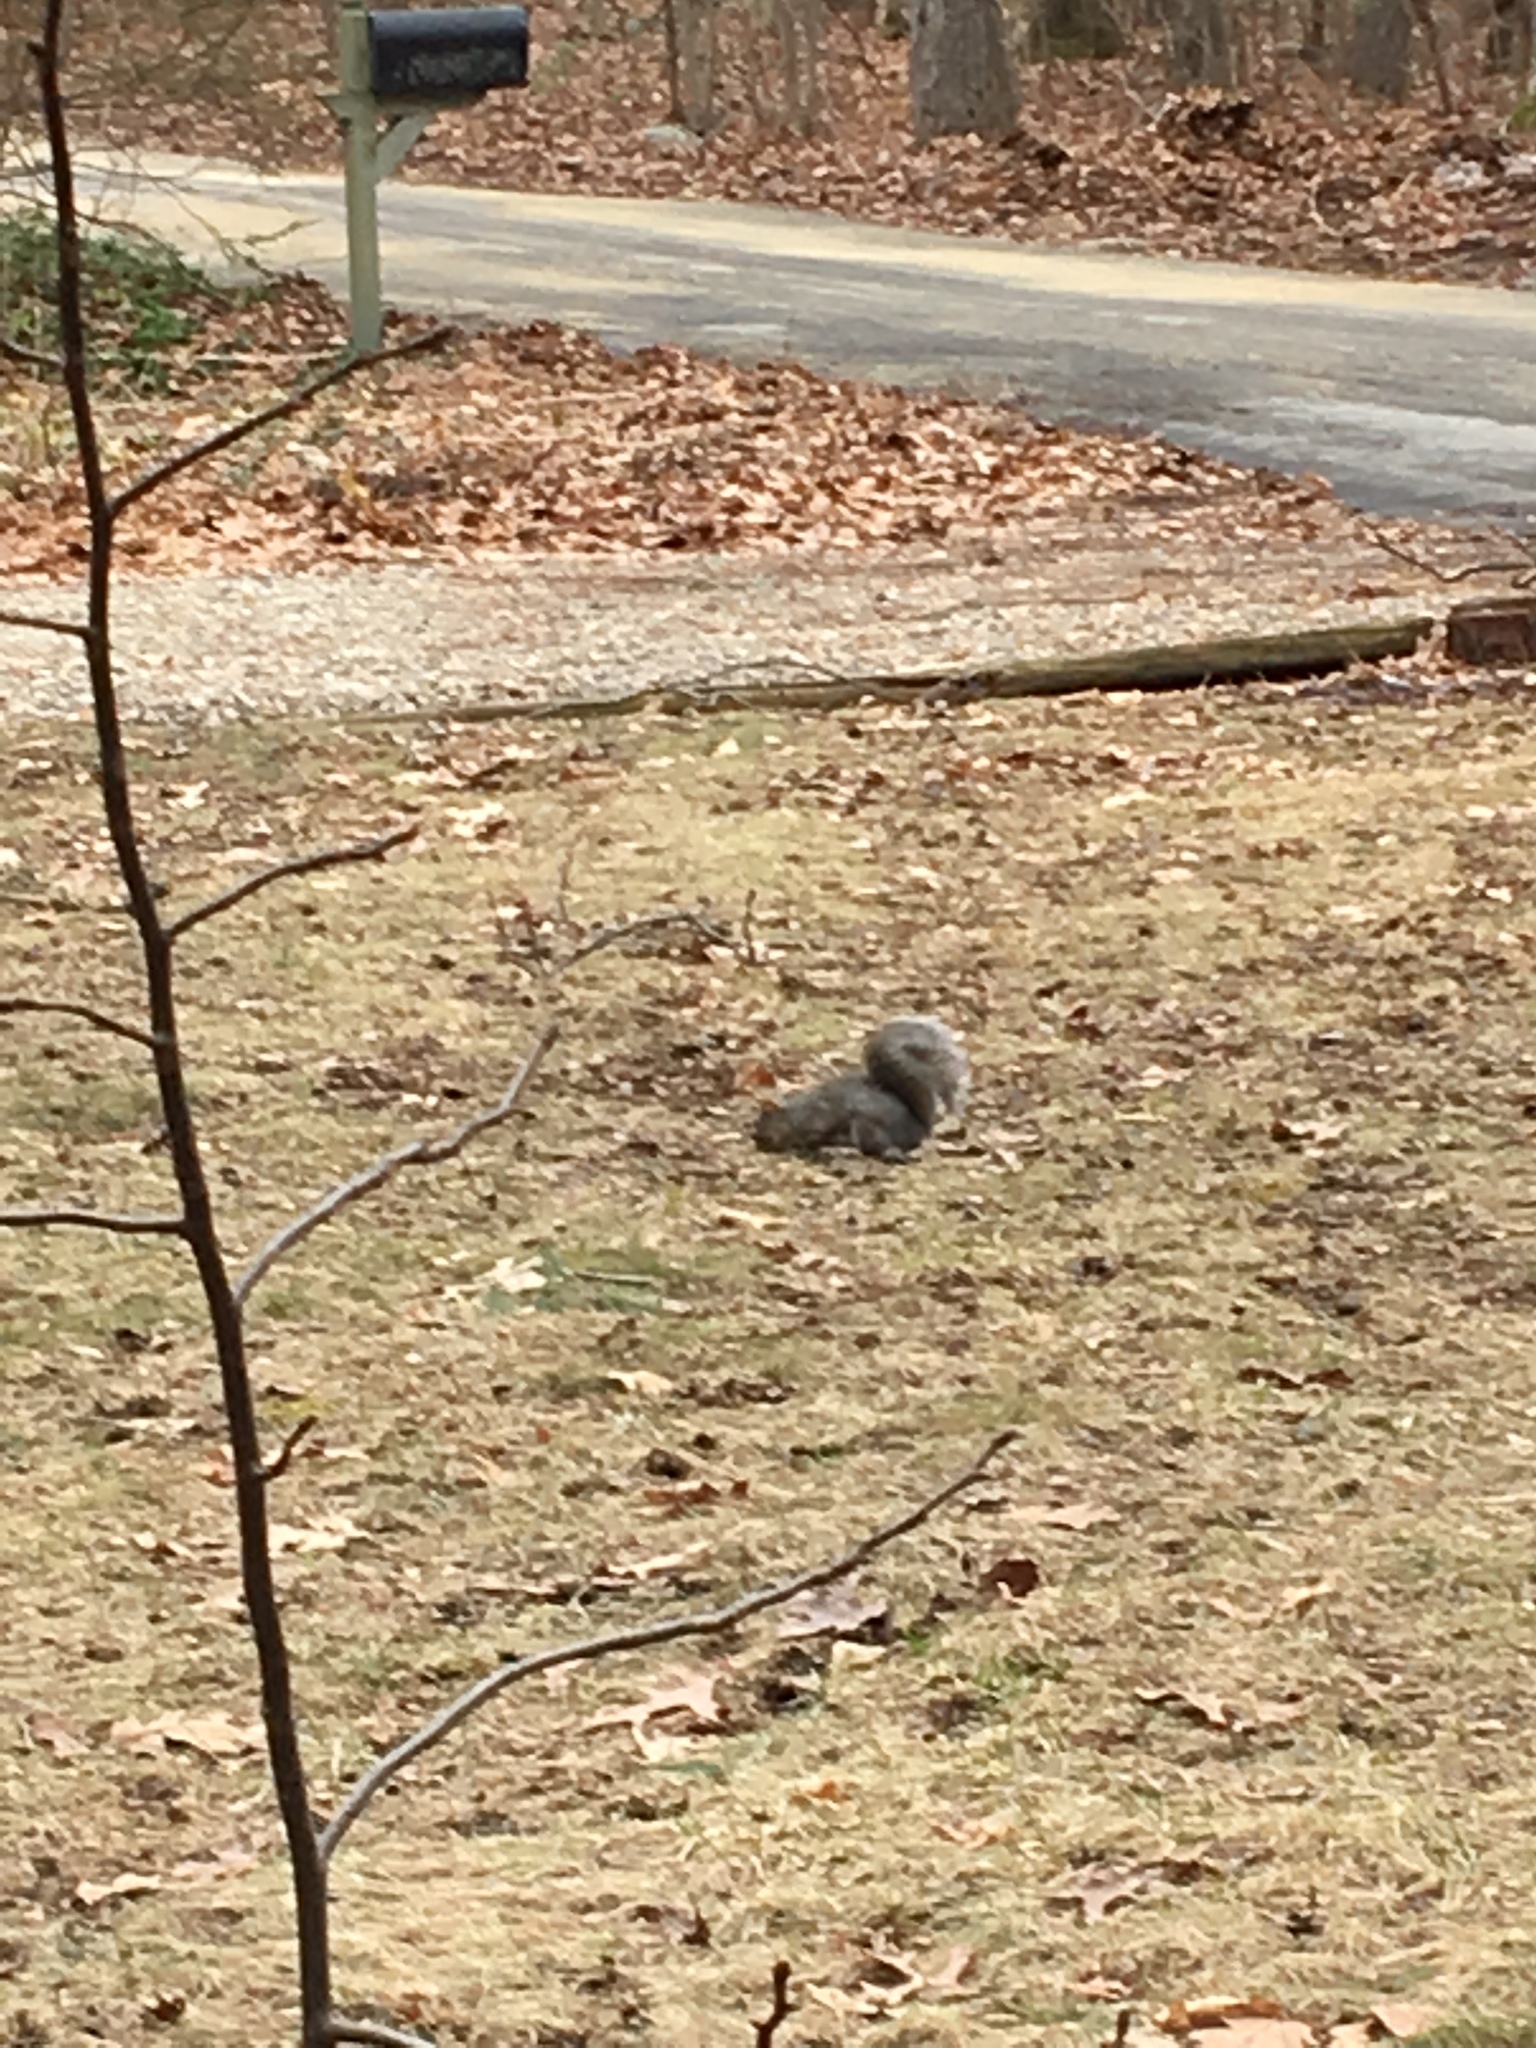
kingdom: Animalia
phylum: Chordata
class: Mammalia
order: Rodentia
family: Sciuridae
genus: Sciurus
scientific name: Sciurus carolinensis
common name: Eastern gray squirrel
